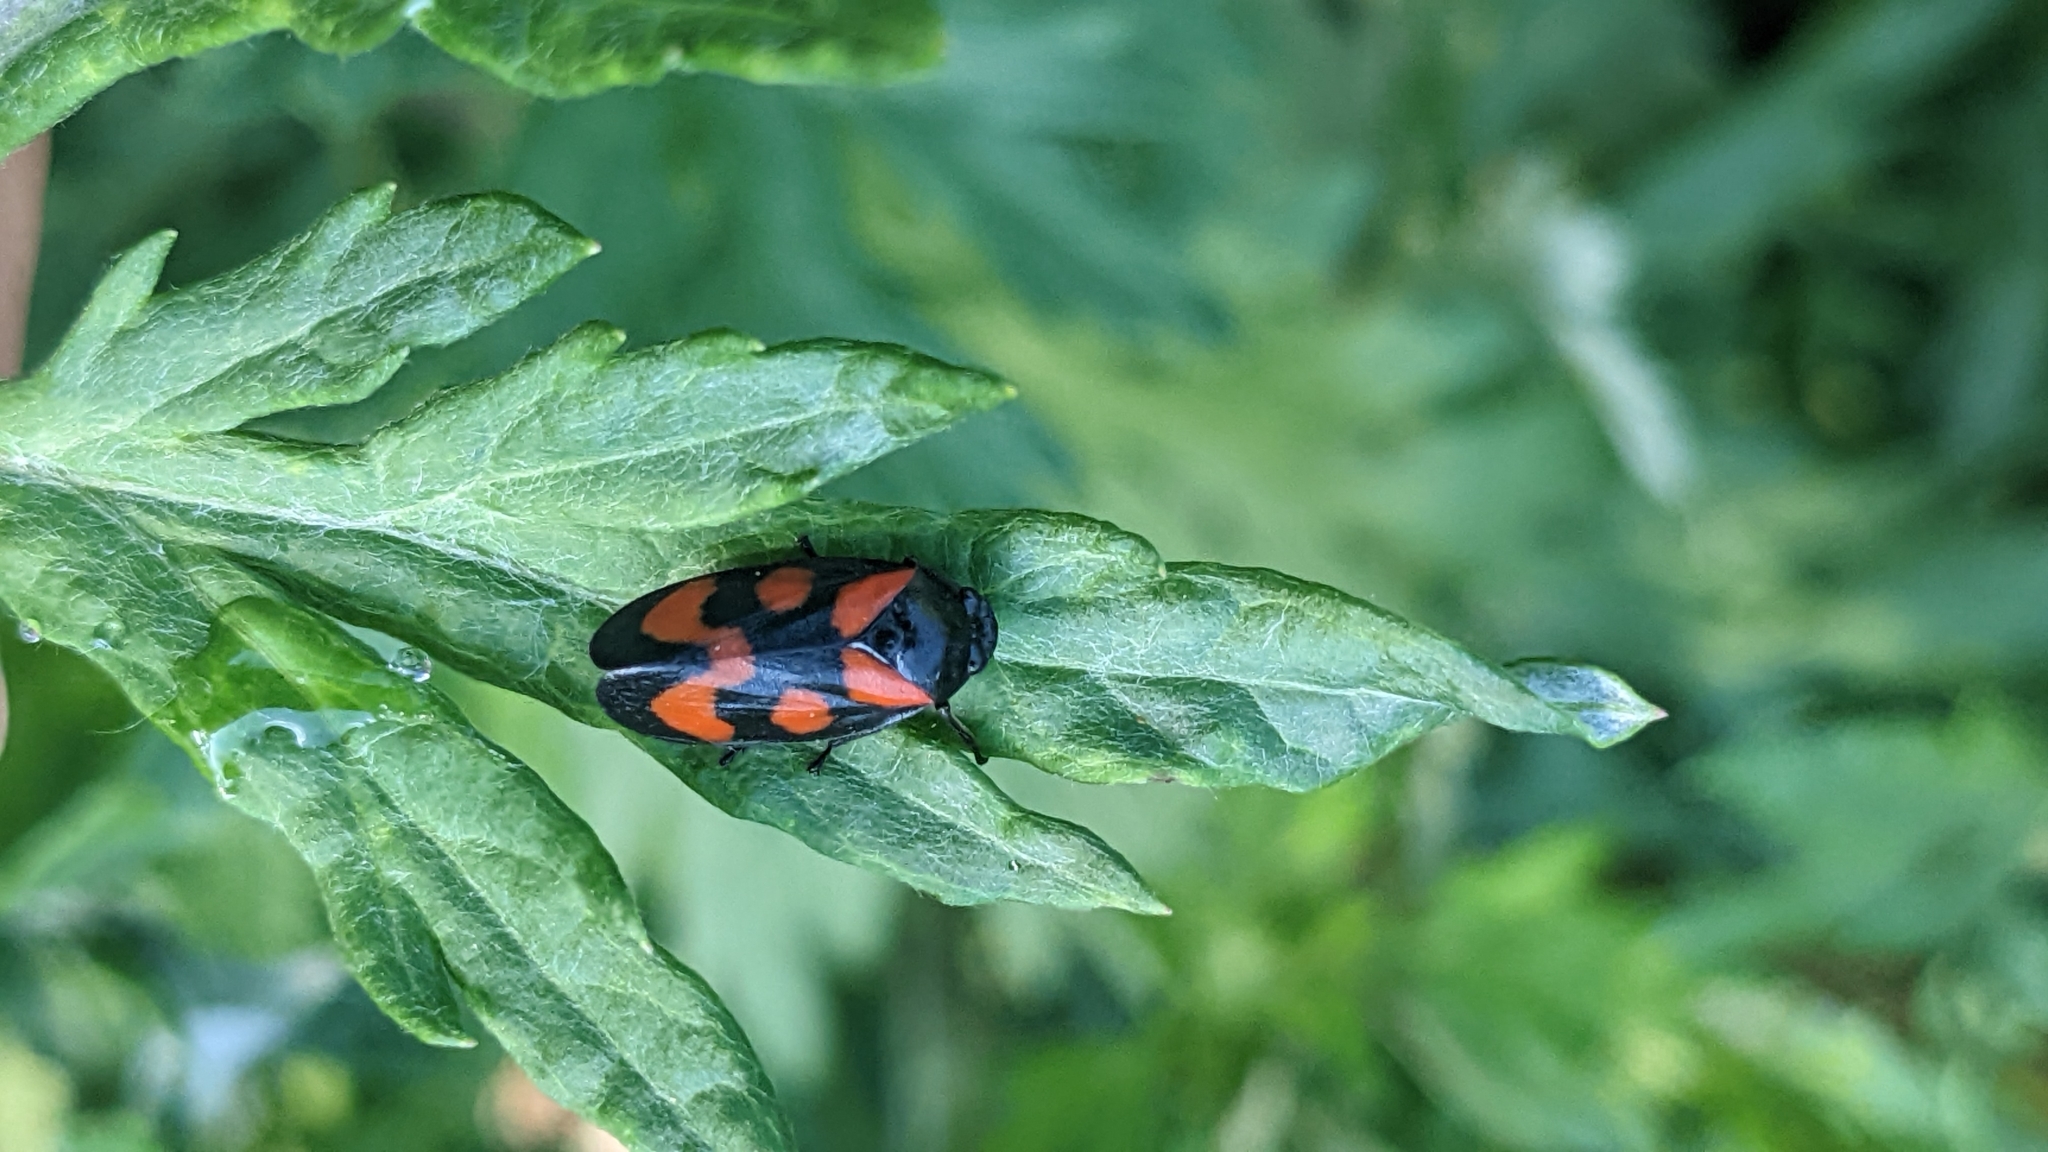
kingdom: Animalia
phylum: Arthropoda
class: Insecta
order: Hemiptera
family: Cercopidae
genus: Cercopis
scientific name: Cercopis vulnerata
